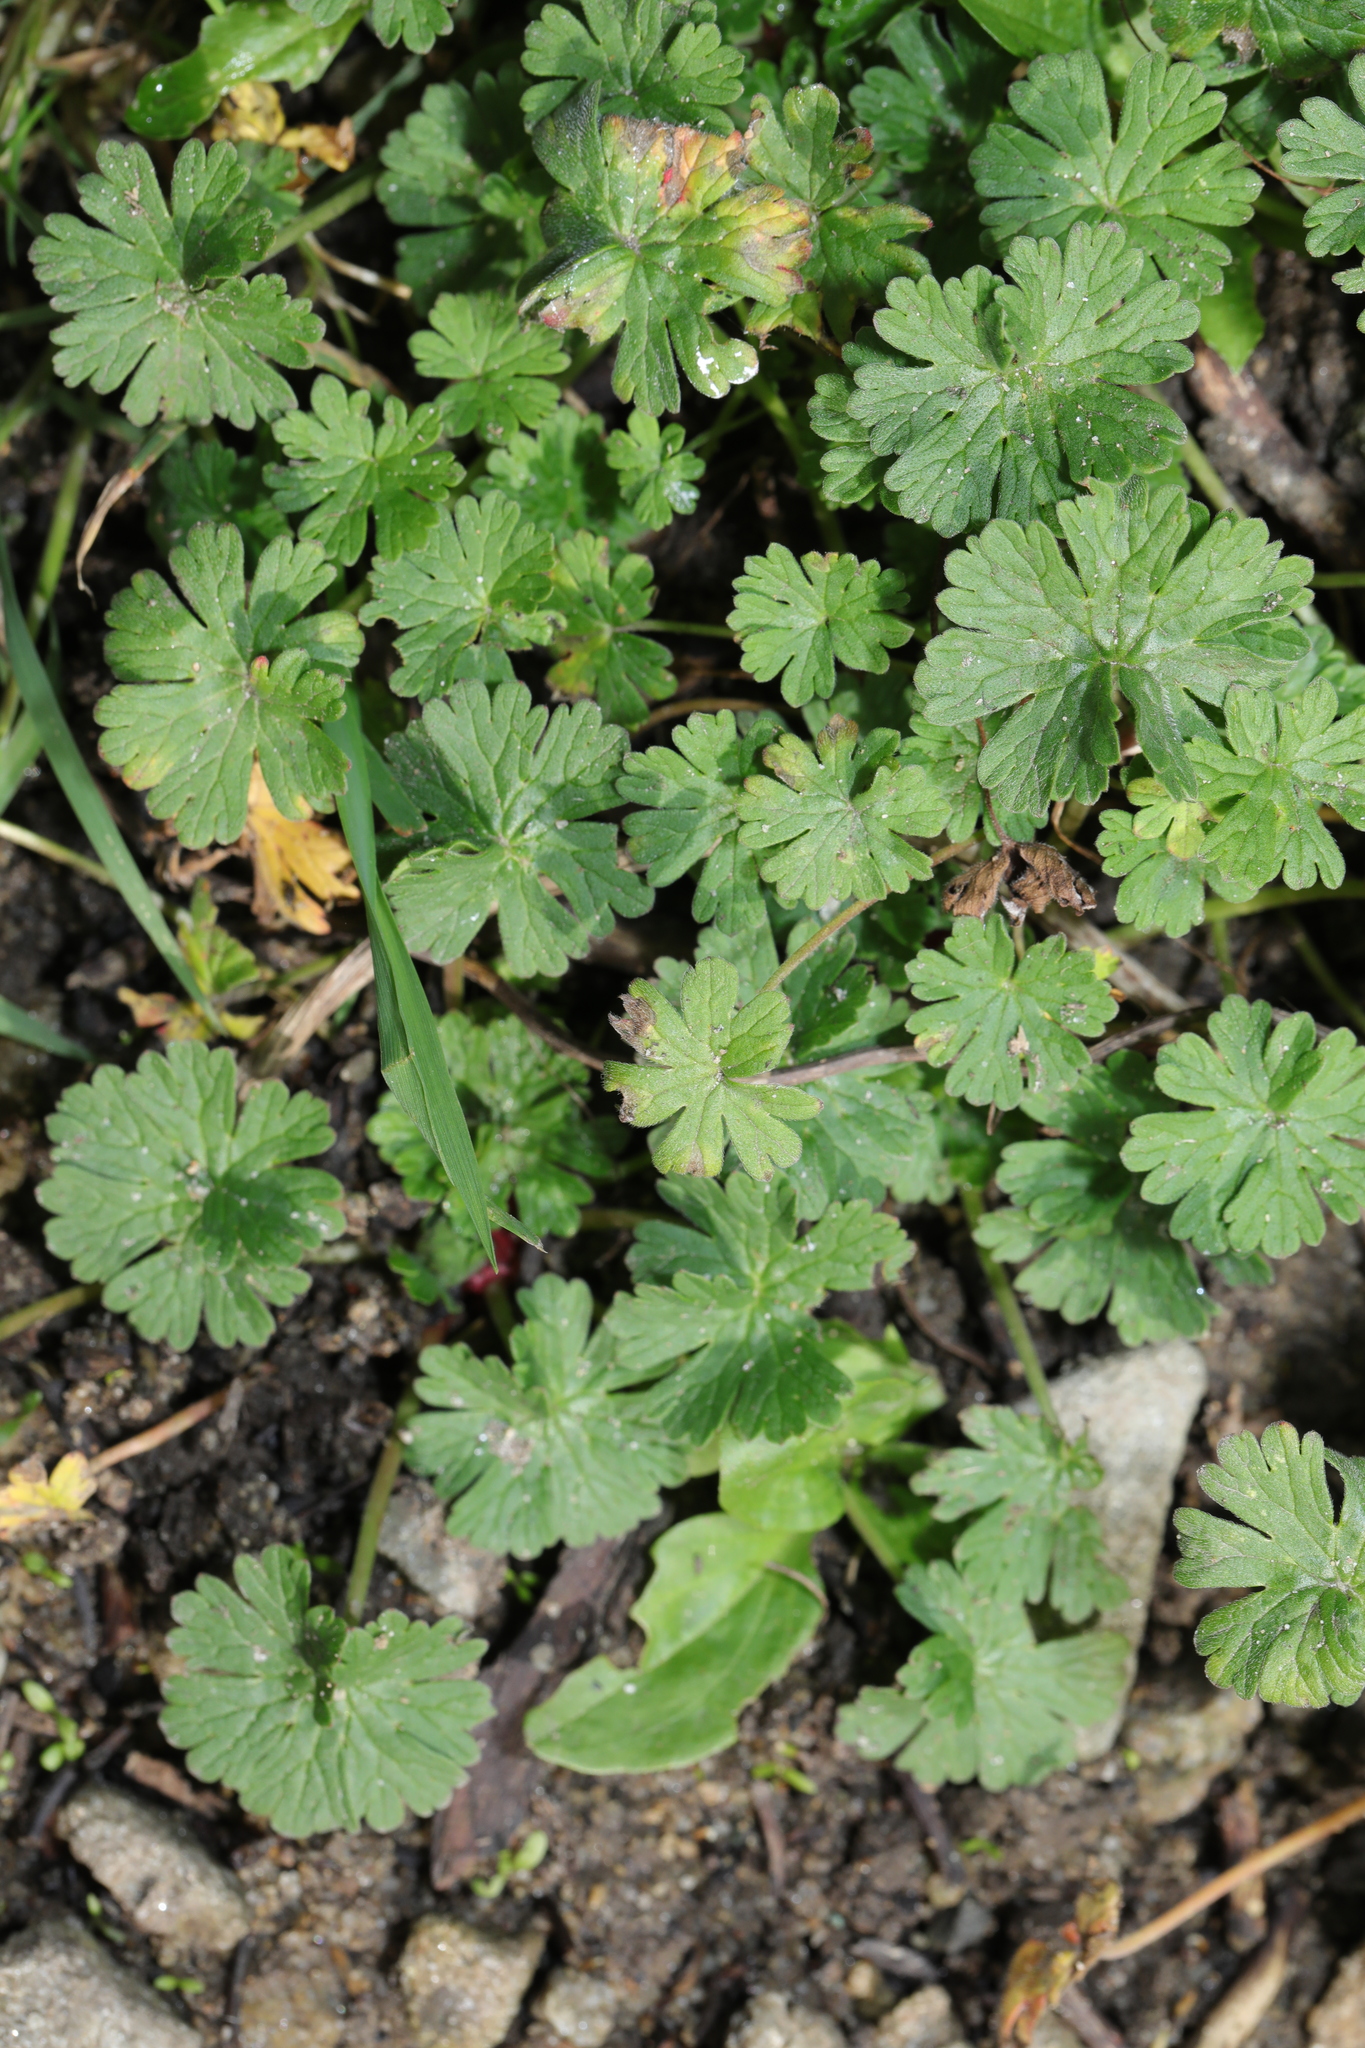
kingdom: Plantae
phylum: Tracheophyta
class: Magnoliopsida
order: Geraniales
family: Geraniaceae
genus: Geranium
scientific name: Geranium molle
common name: Dove's-foot crane's-bill
